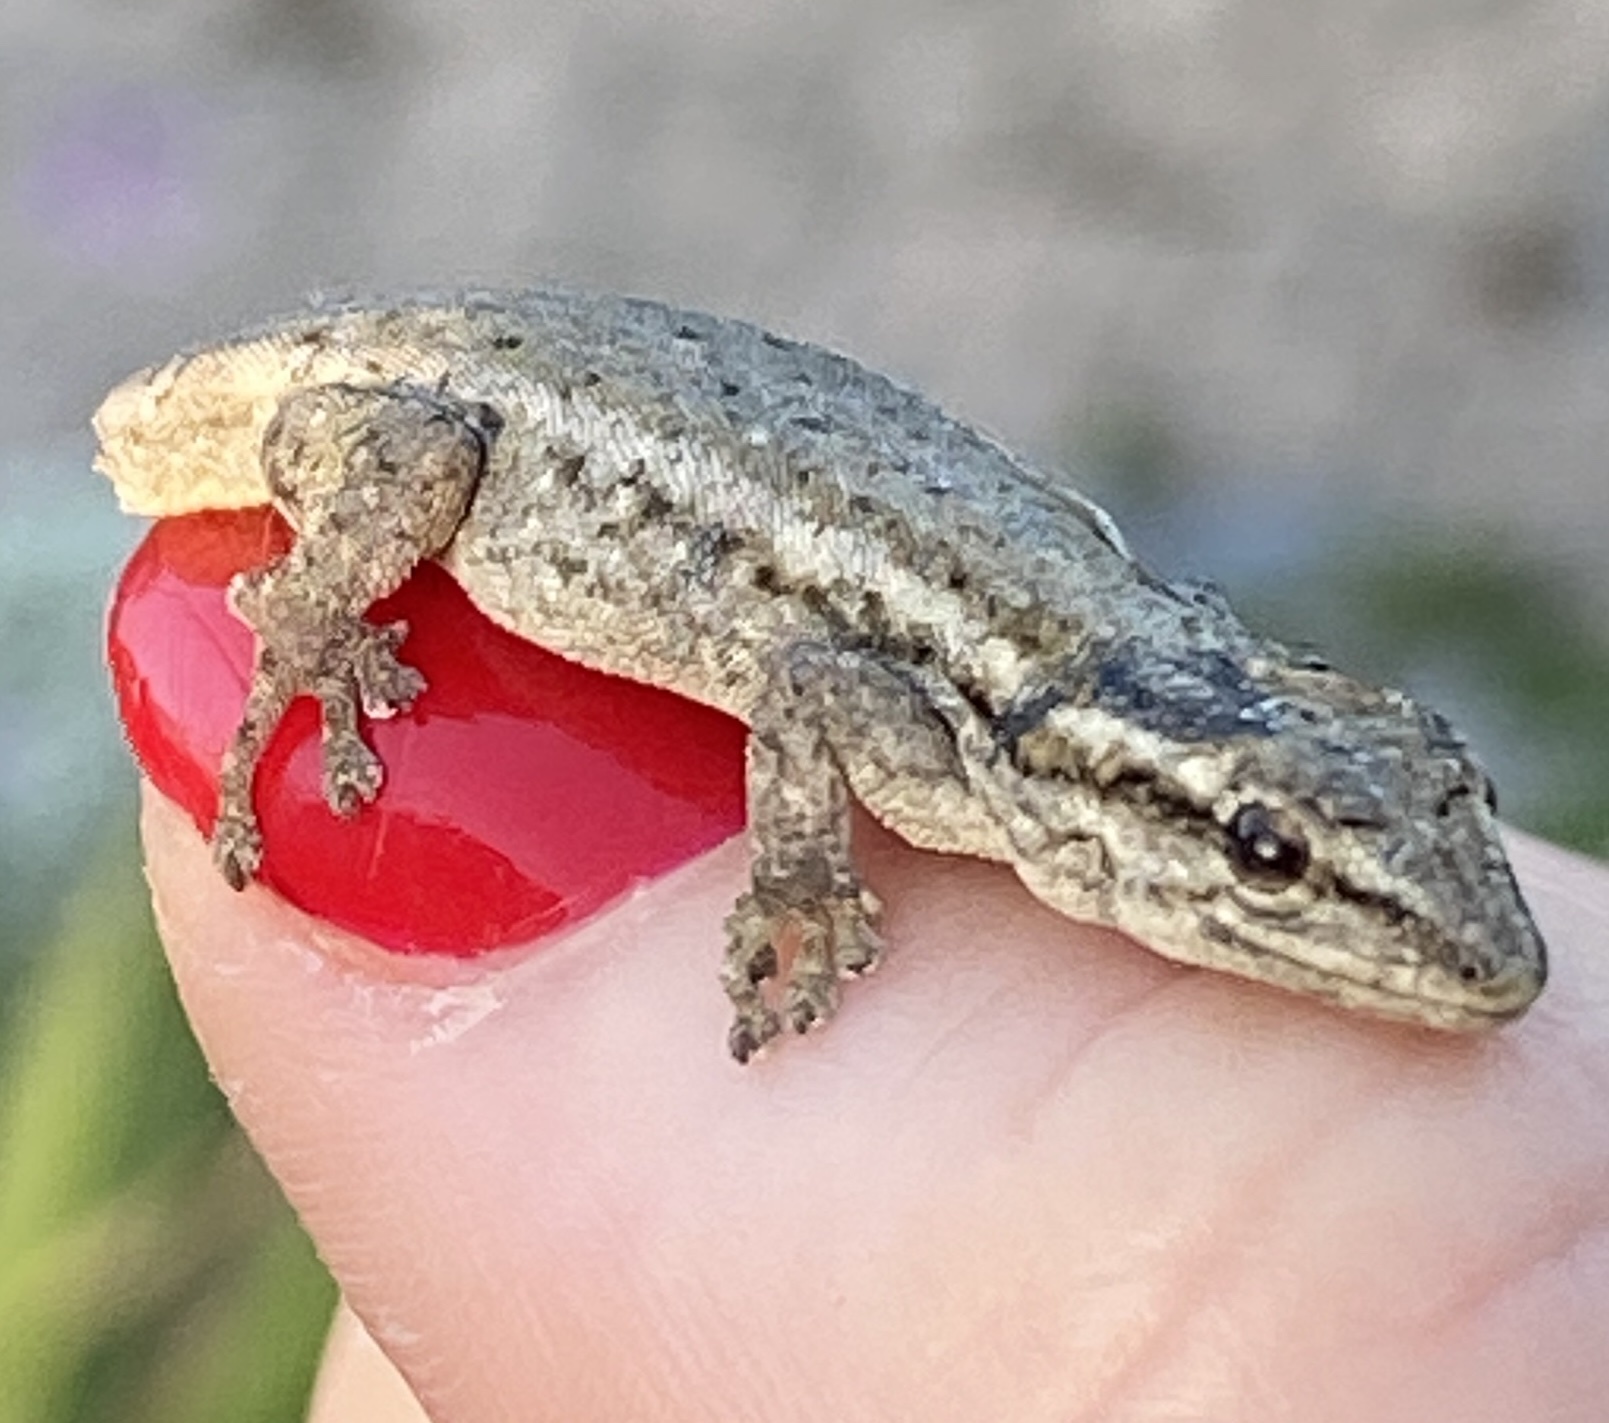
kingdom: Animalia
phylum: Chordata
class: Squamata
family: Gekkonidae
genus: Lygodactylus
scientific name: Lygodactylus capensis
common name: Cape dwarf gecko
